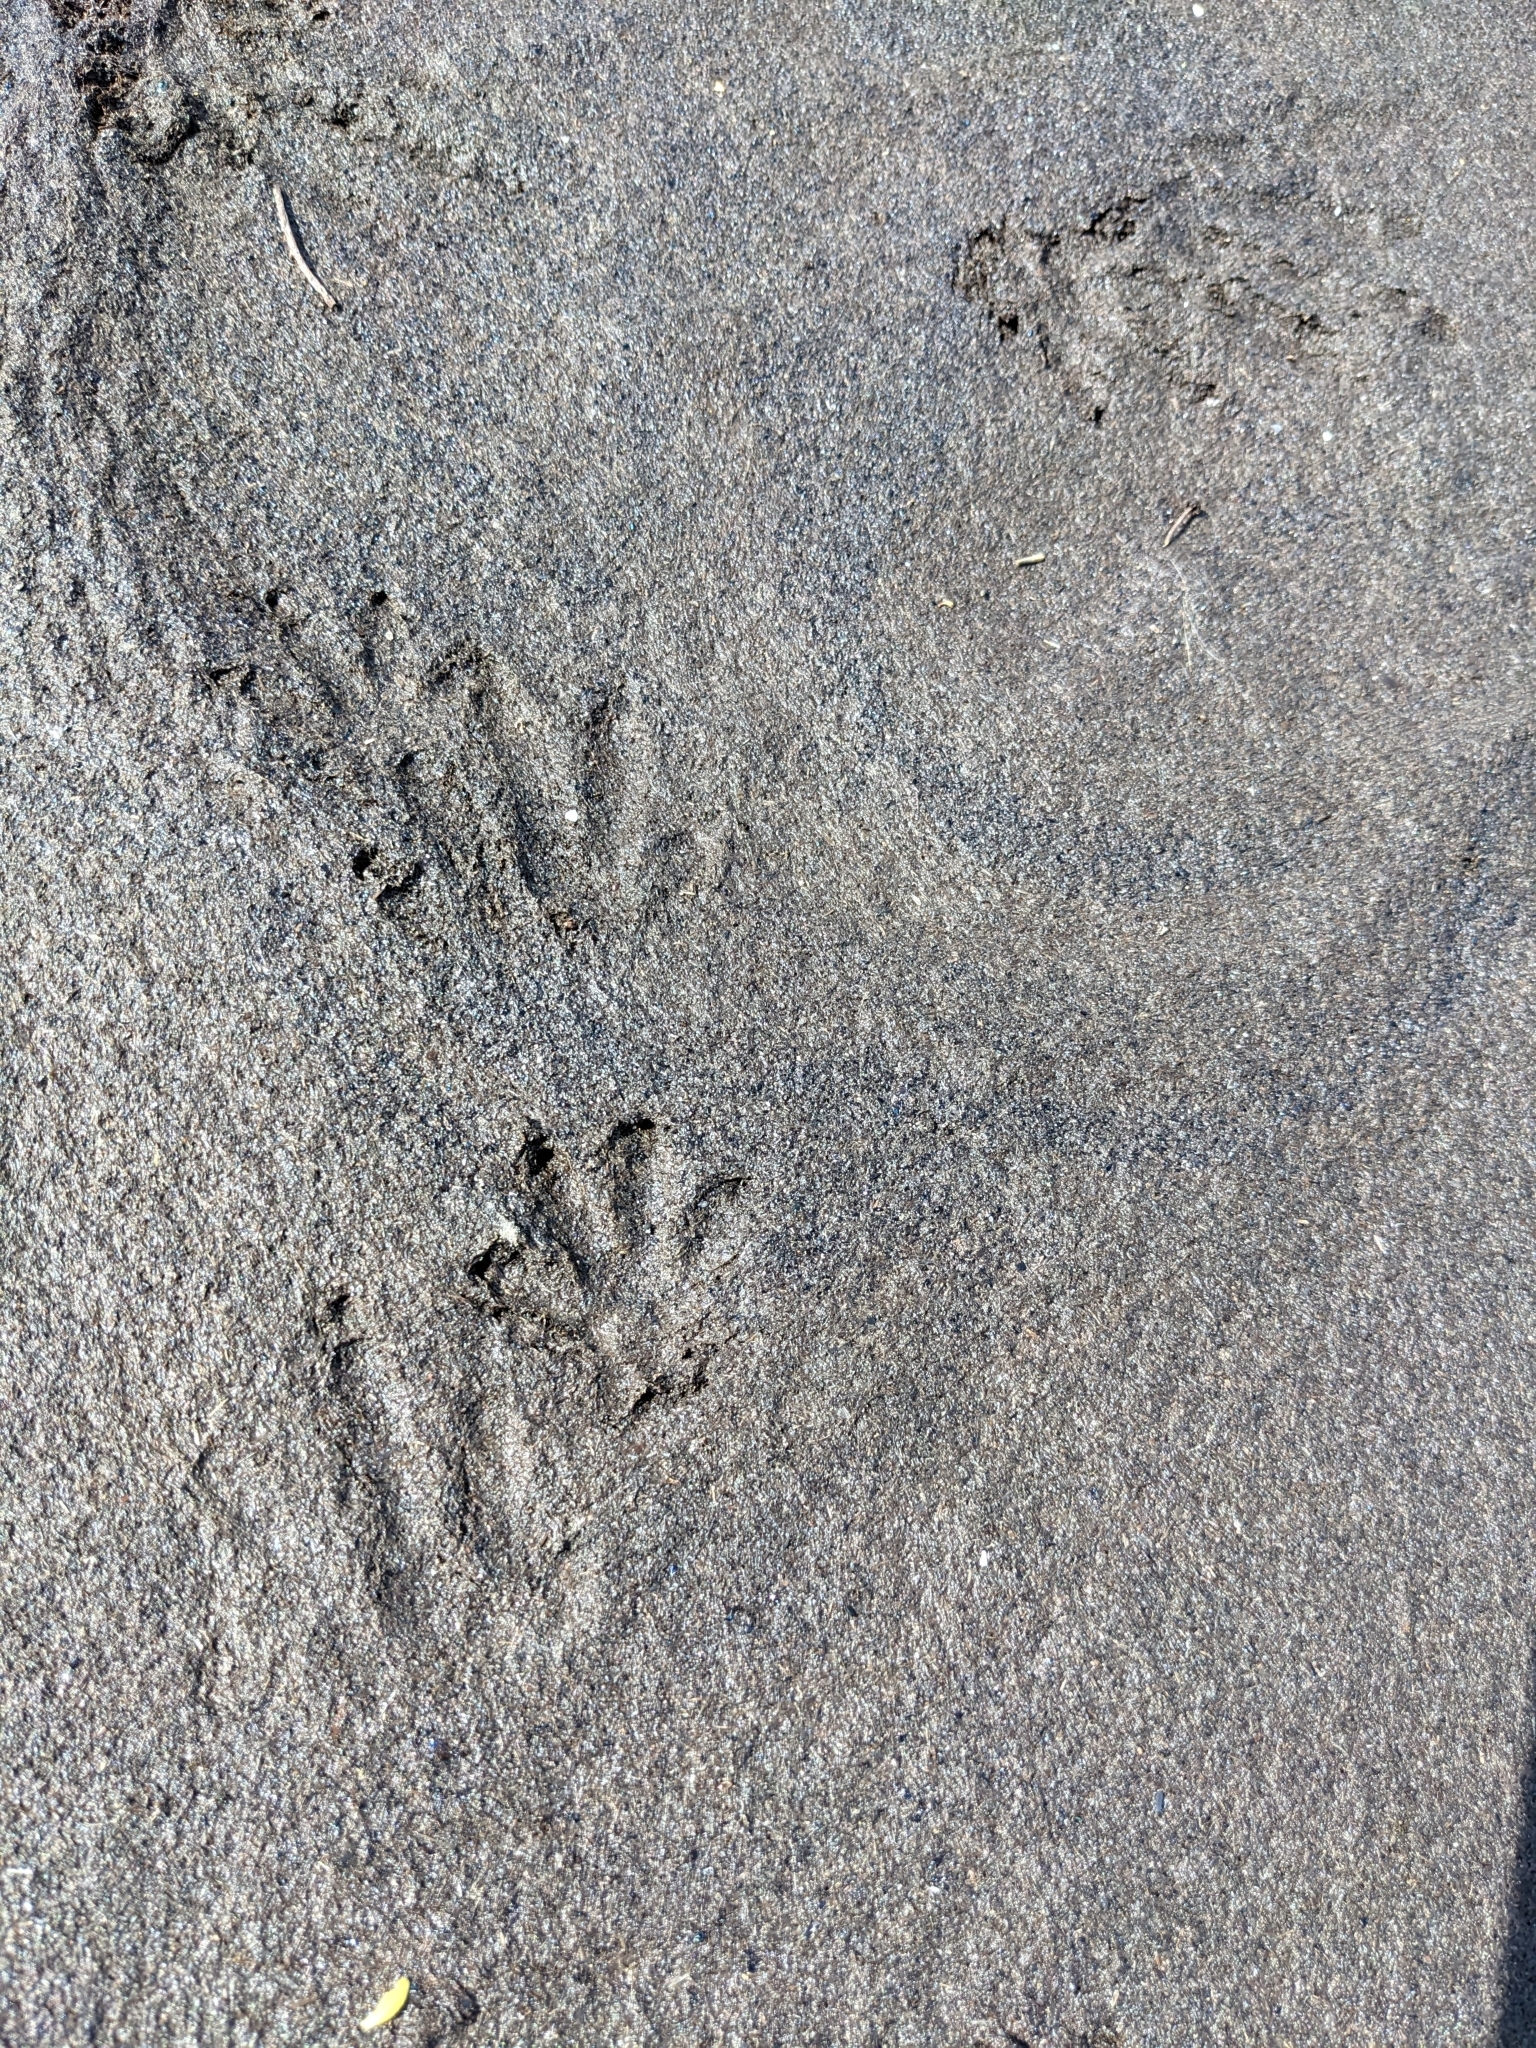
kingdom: Animalia
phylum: Chordata
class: Mammalia
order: Rodentia
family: Myocastoridae
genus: Myocastor
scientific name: Myocastor coypus
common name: Coypu
